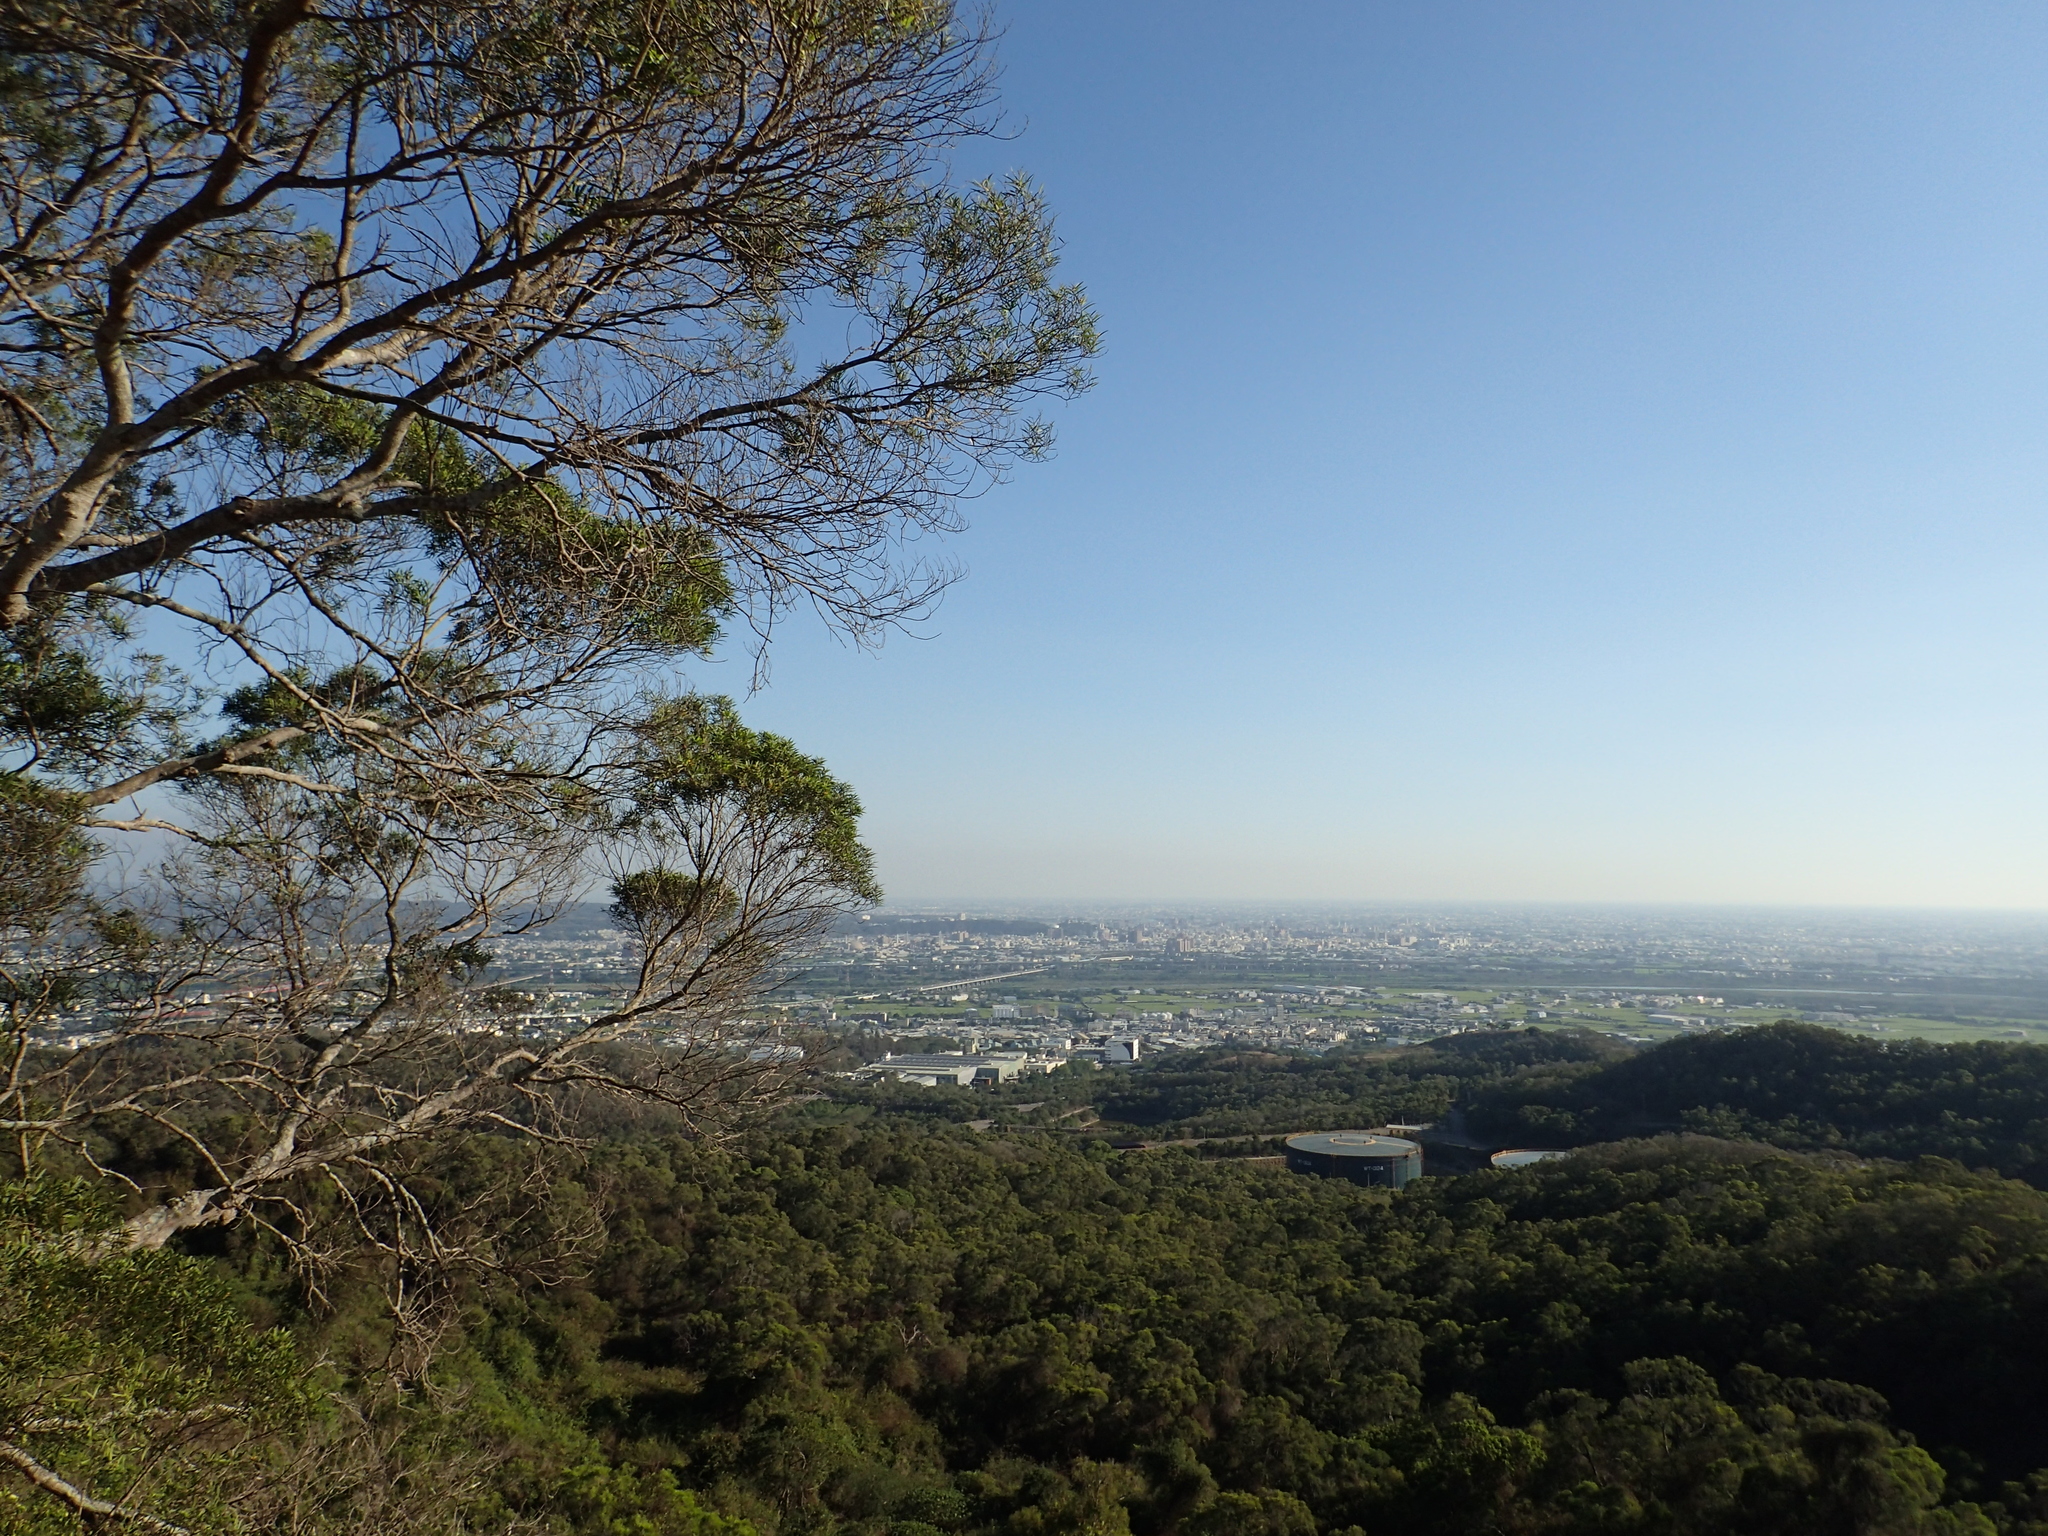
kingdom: Plantae
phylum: Tracheophyta
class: Magnoliopsida
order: Fabales
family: Fabaceae
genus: Acacia
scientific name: Acacia confusa
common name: Formosan koa
